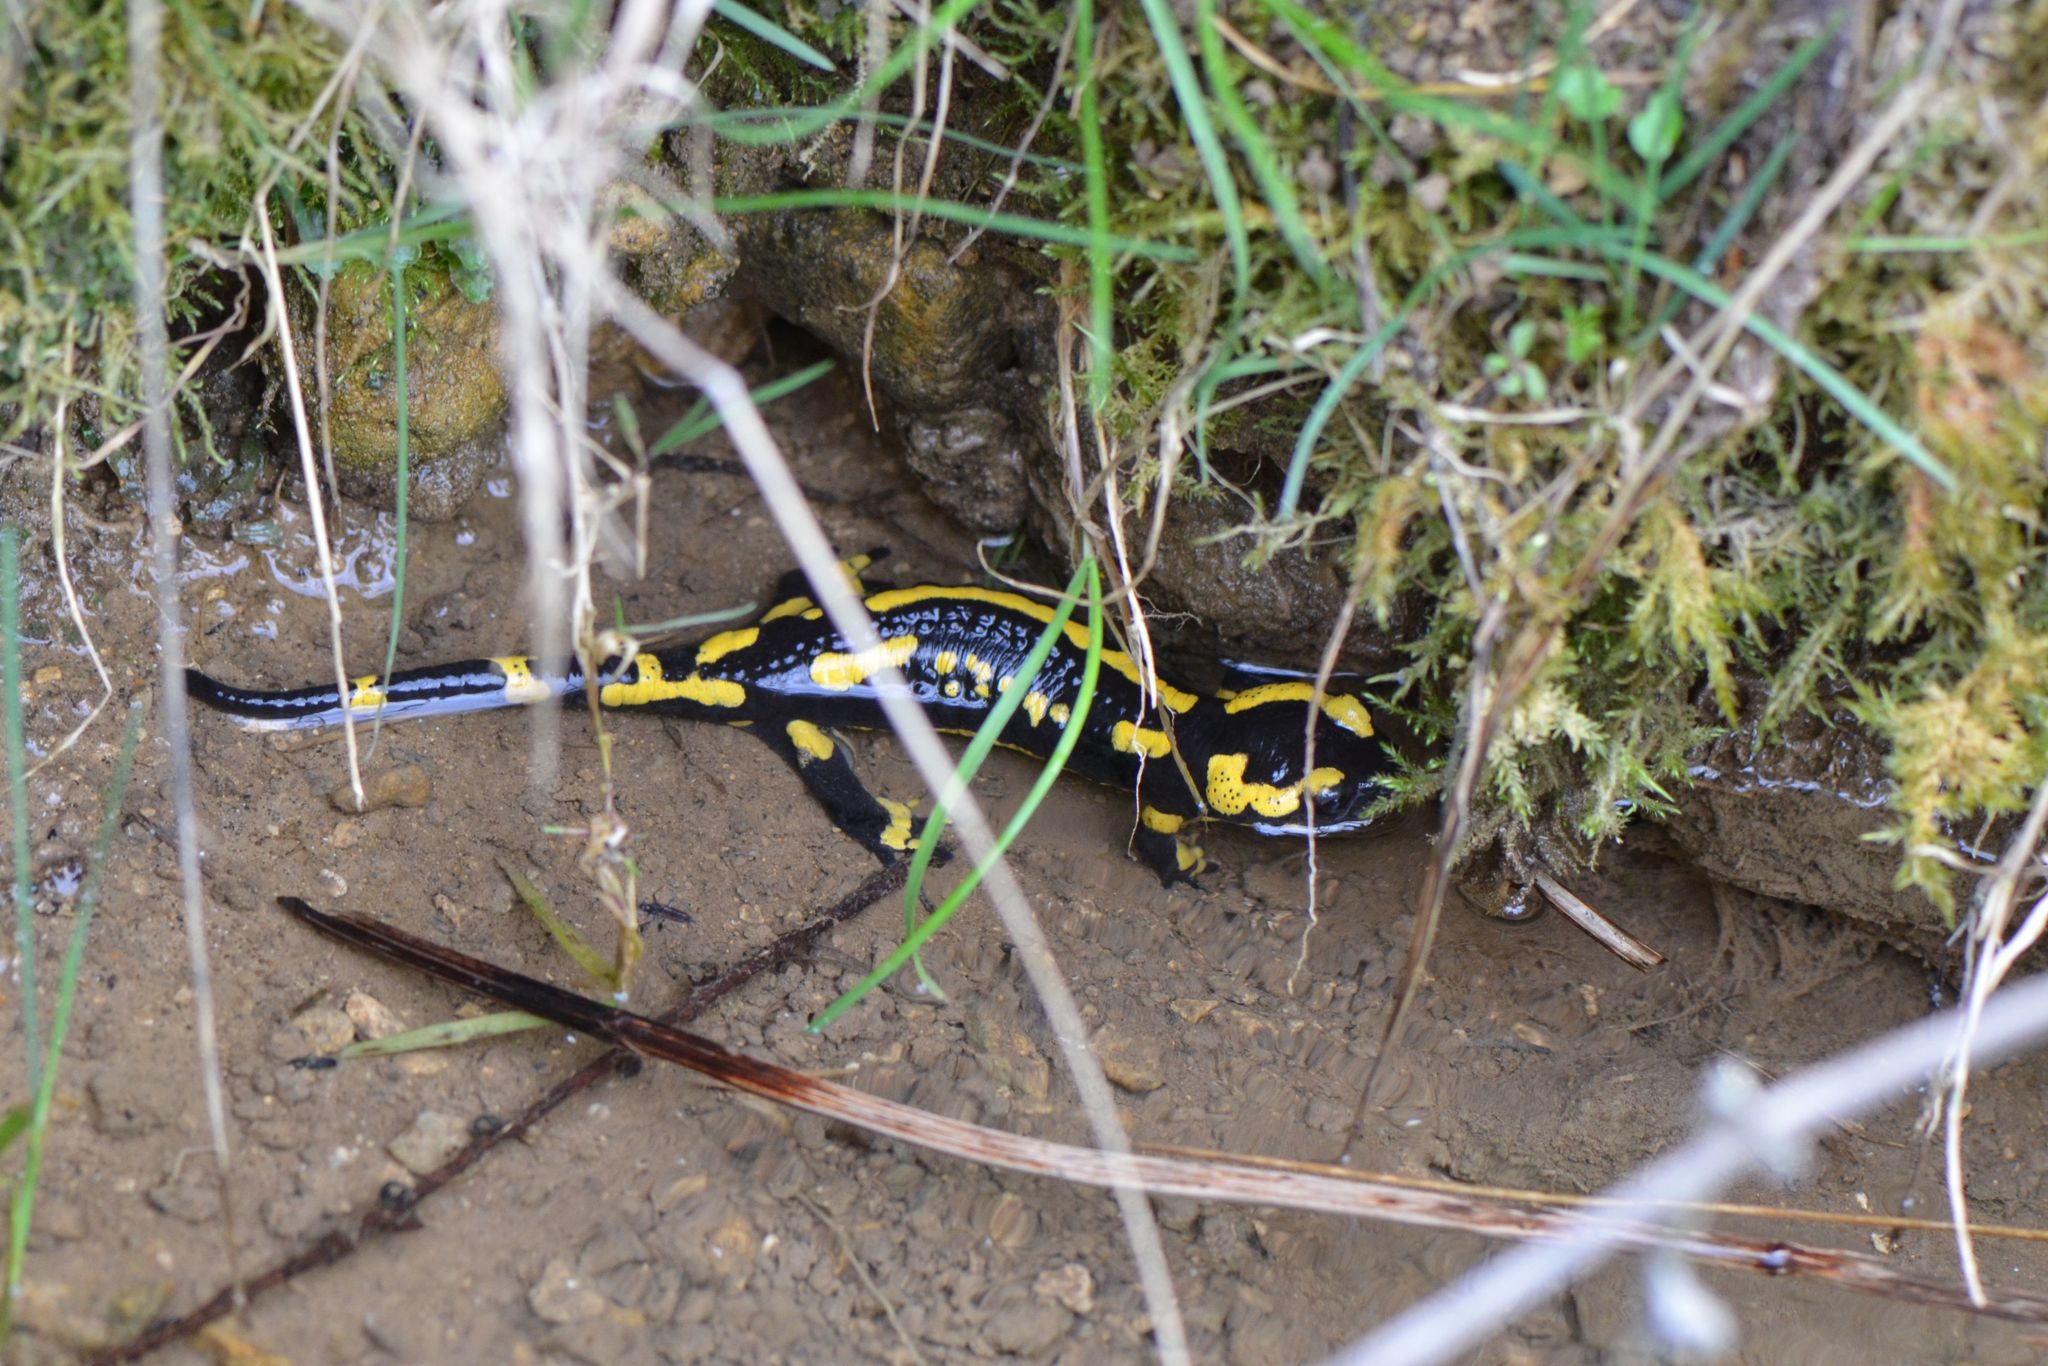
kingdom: Animalia
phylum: Chordata
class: Amphibia
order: Caudata
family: Salamandridae
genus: Salamandra
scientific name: Salamandra salamandra
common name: Fire salamander
